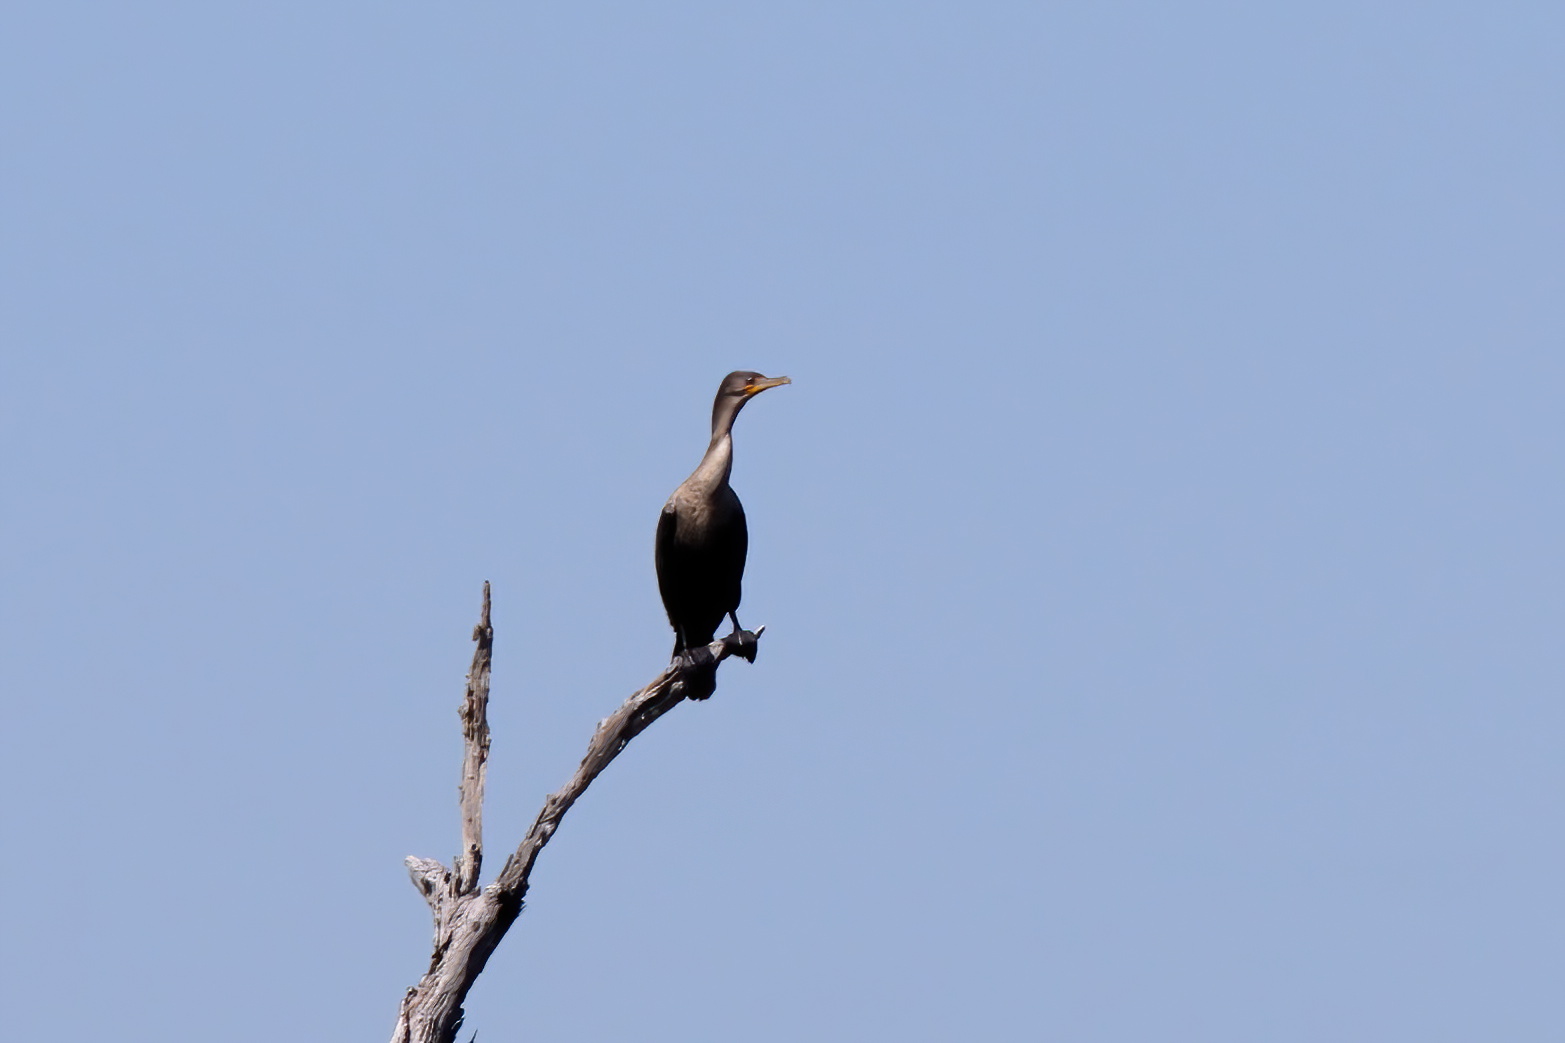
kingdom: Animalia
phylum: Chordata
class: Aves
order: Suliformes
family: Phalacrocoracidae
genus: Phalacrocorax
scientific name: Phalacrocorax auritus
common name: Double-crested cormorant
